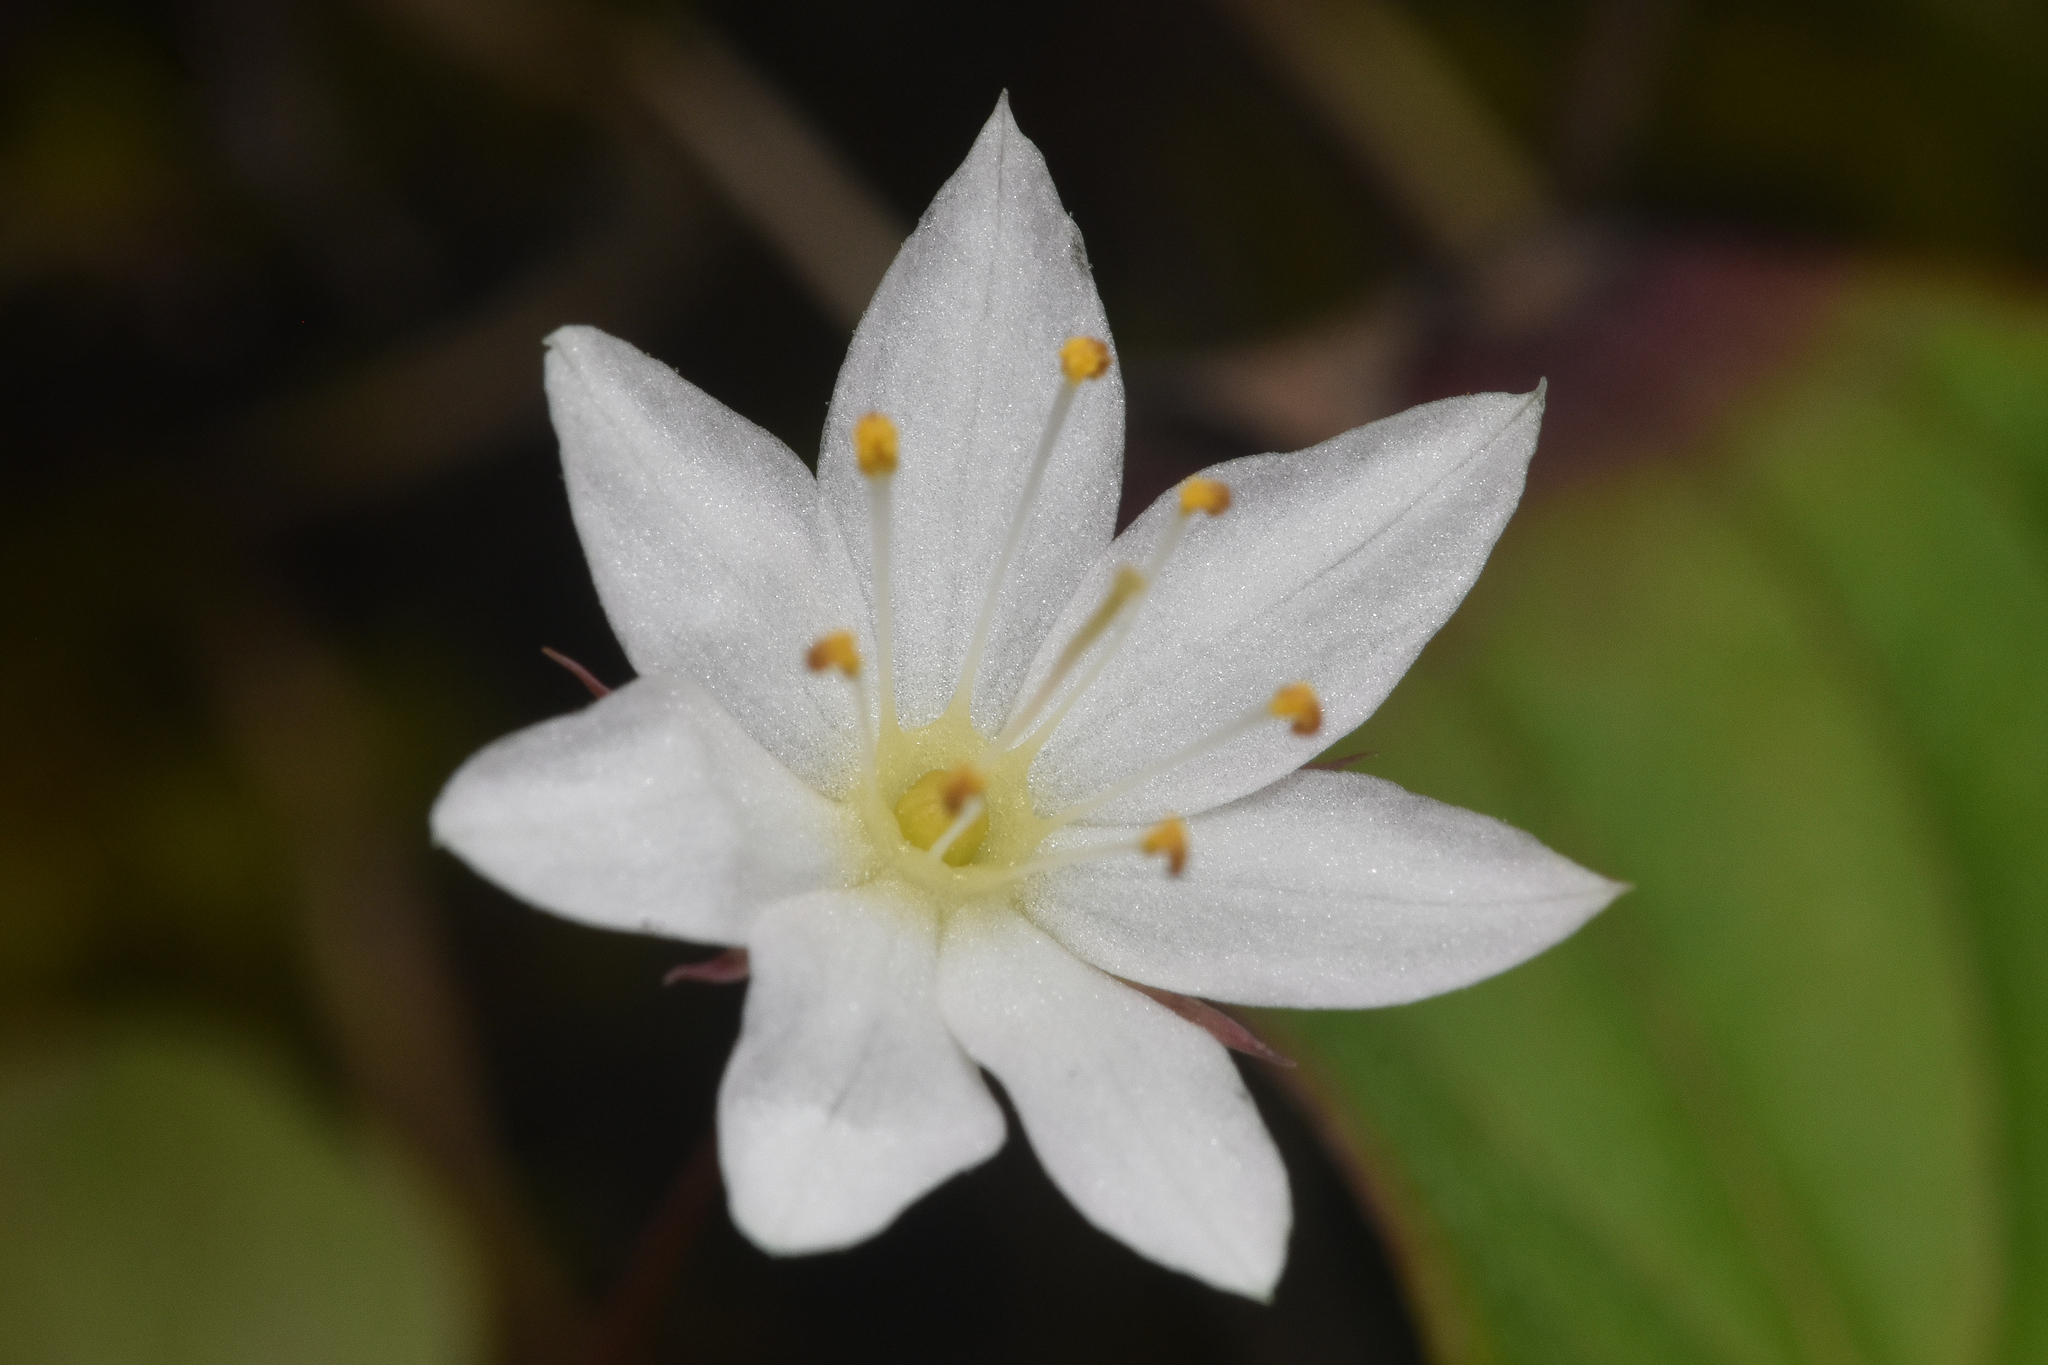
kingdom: Plantae
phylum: Tracheophyta
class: Magnoliopsida
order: Ericales
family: Primulaceae
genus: Lysimachia
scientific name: Lysimachia europaea
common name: Arctic starflower
